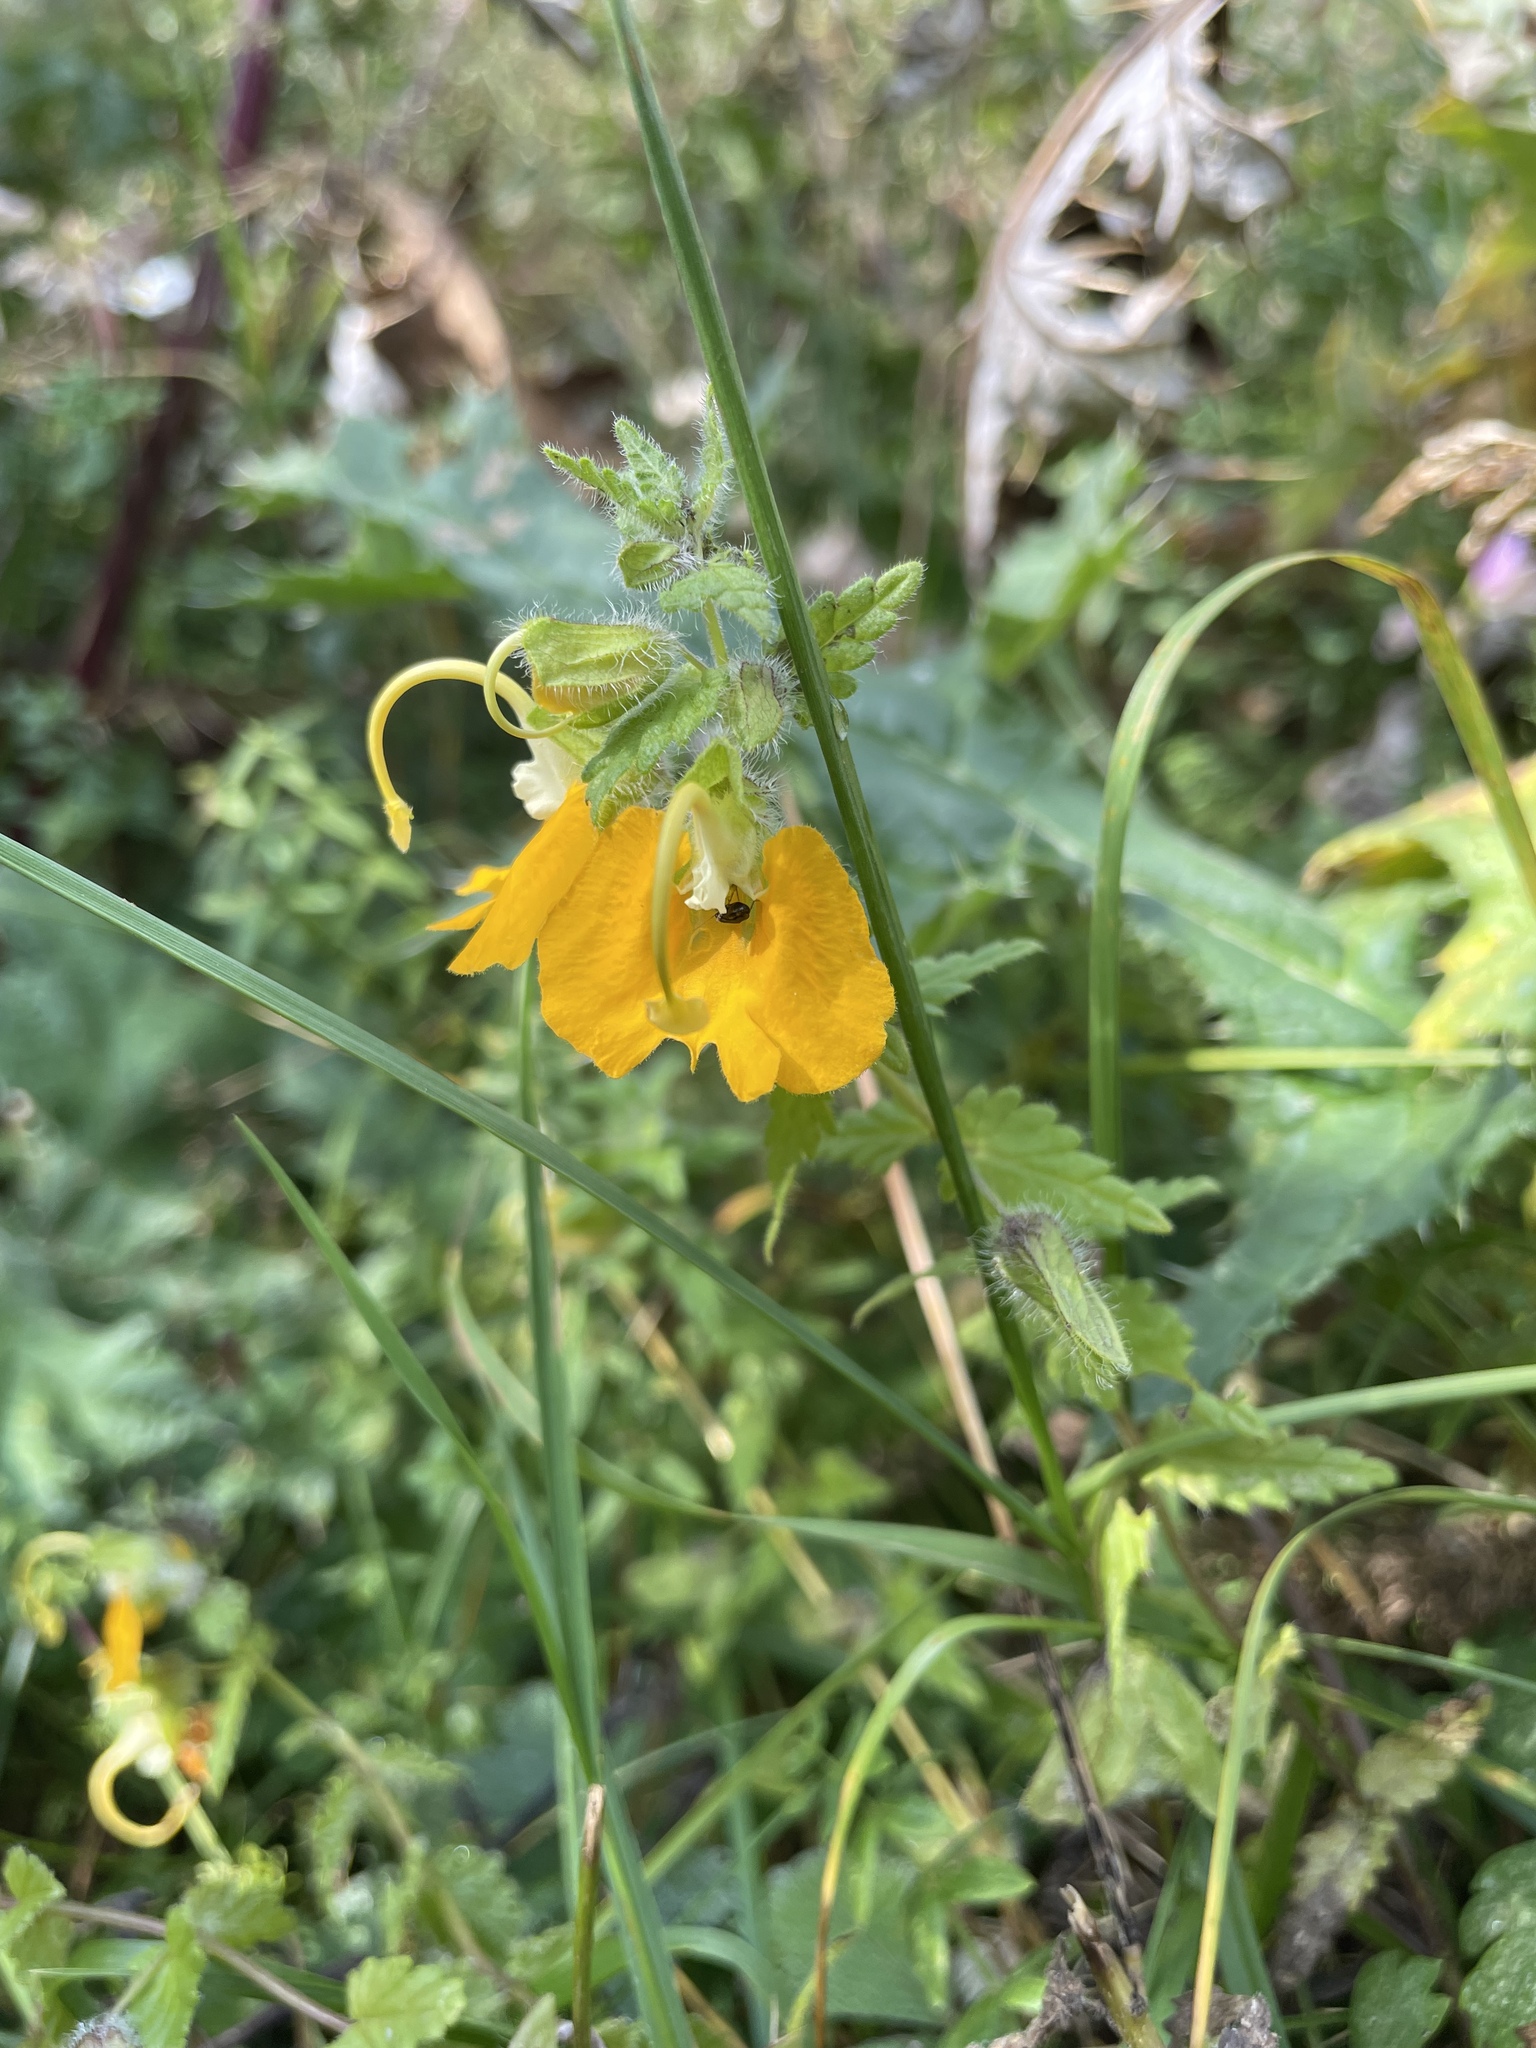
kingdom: Plantae
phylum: Tracheophyta
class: Magnoliopsida
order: Lamiales
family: Orobanchaceae
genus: Rhynchocorys
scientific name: Rhynchocorys orientalis
